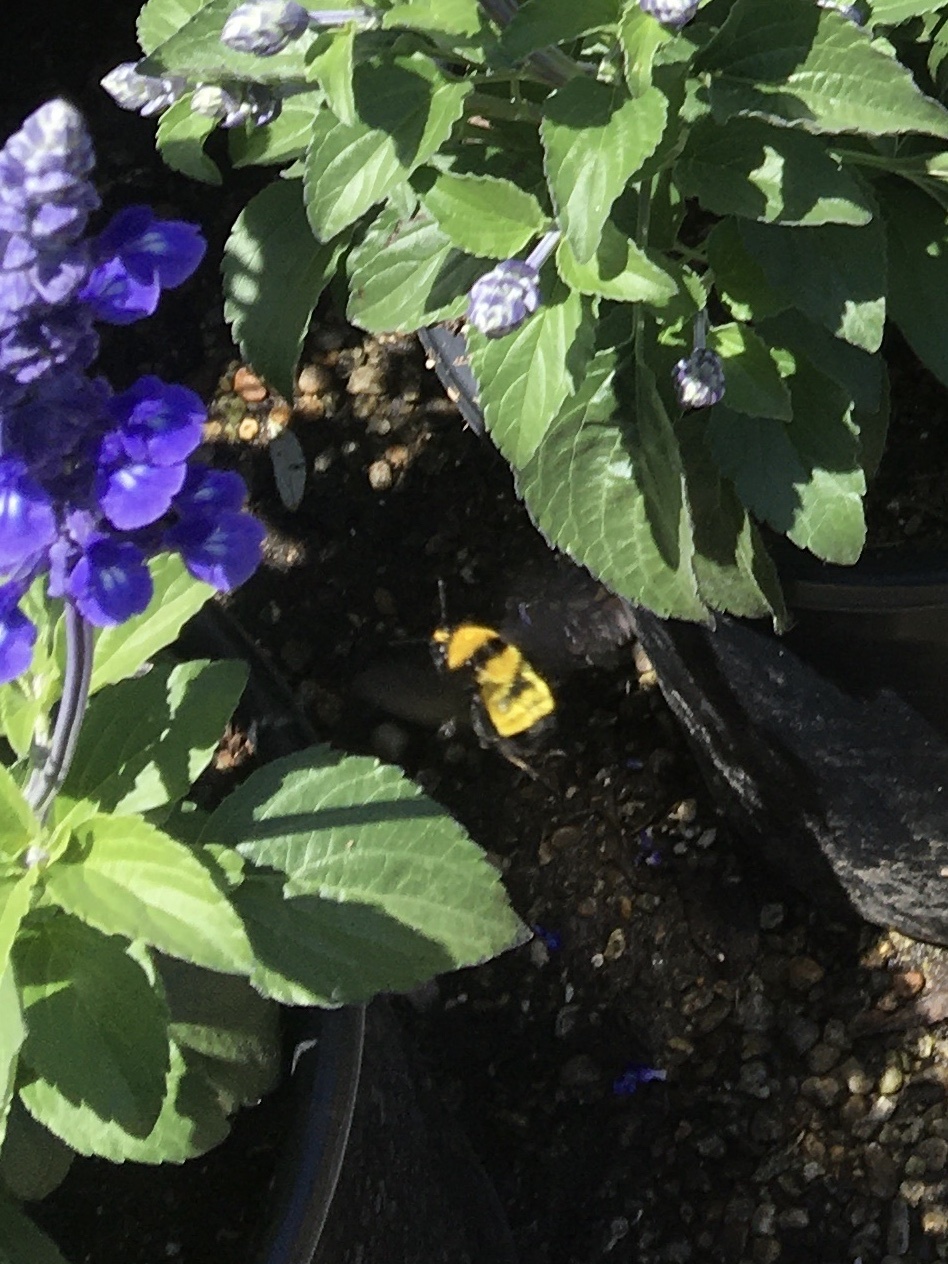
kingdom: Animalia
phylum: Arthropoda
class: Insecta
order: Hymenoptera
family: Apidae
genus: Bombus
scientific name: Bombus sonorus
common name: Sonoran bumble bee
